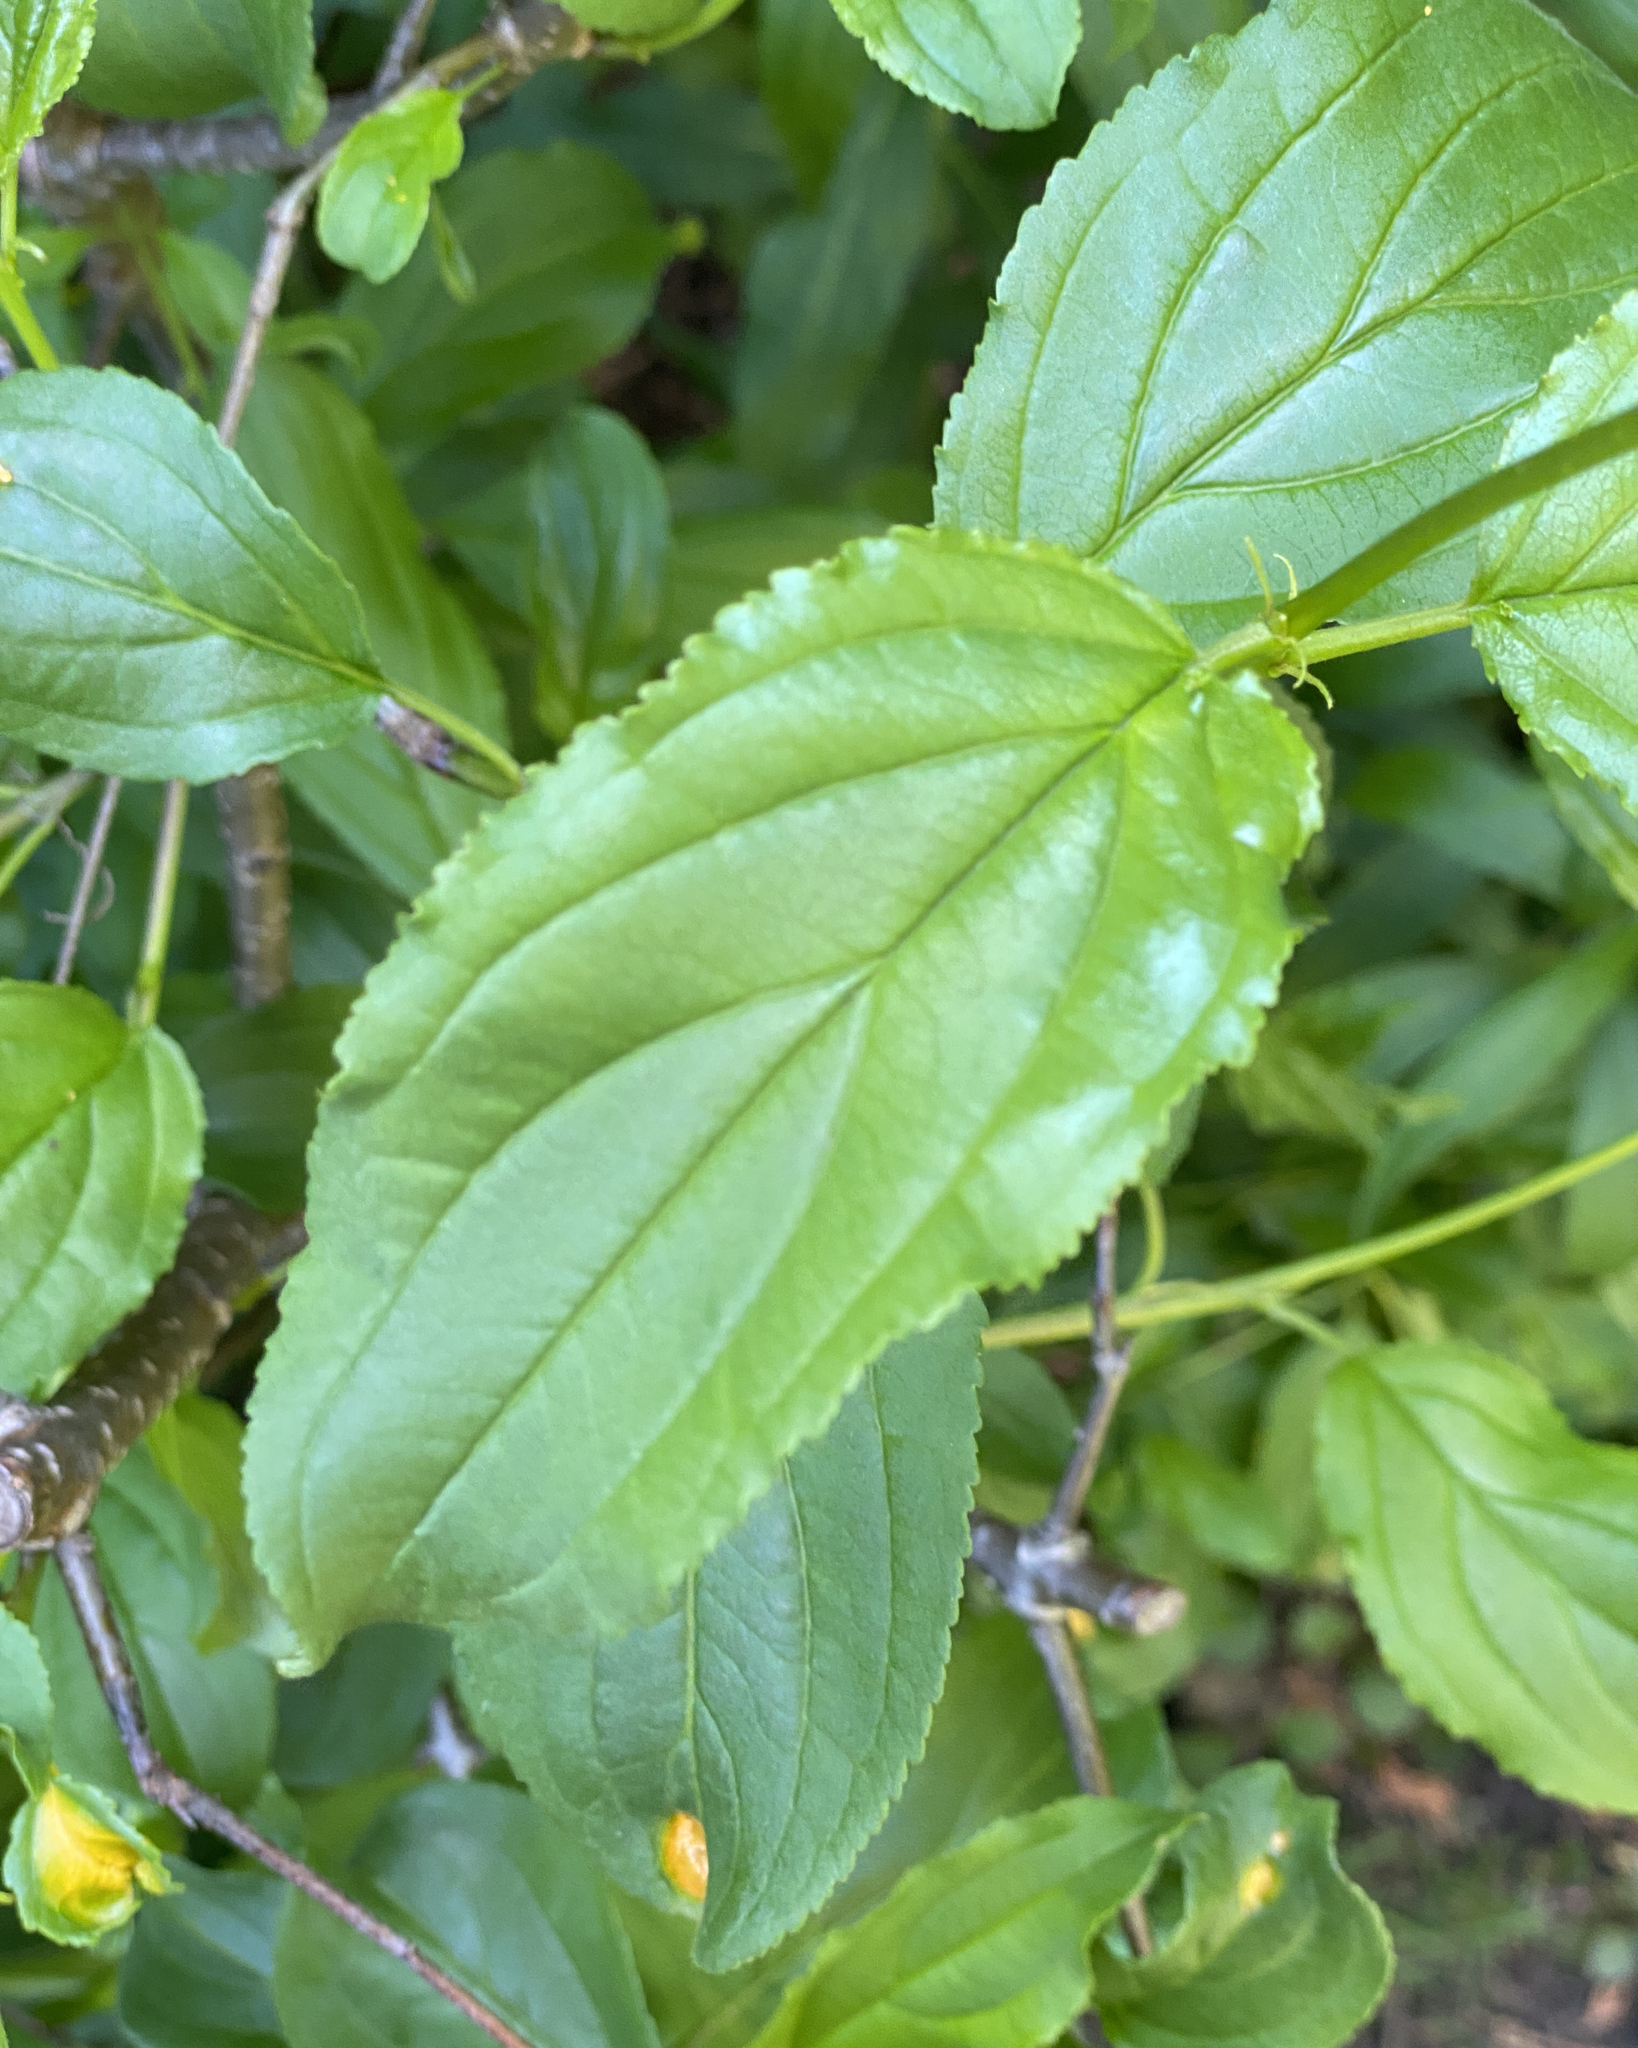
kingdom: Plantae
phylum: Tracheophyta
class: Magnoliopsida
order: Rosales
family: Rhamnaceae
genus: Rhamnus
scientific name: Rhamnus cathartica
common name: Common buckthorn
